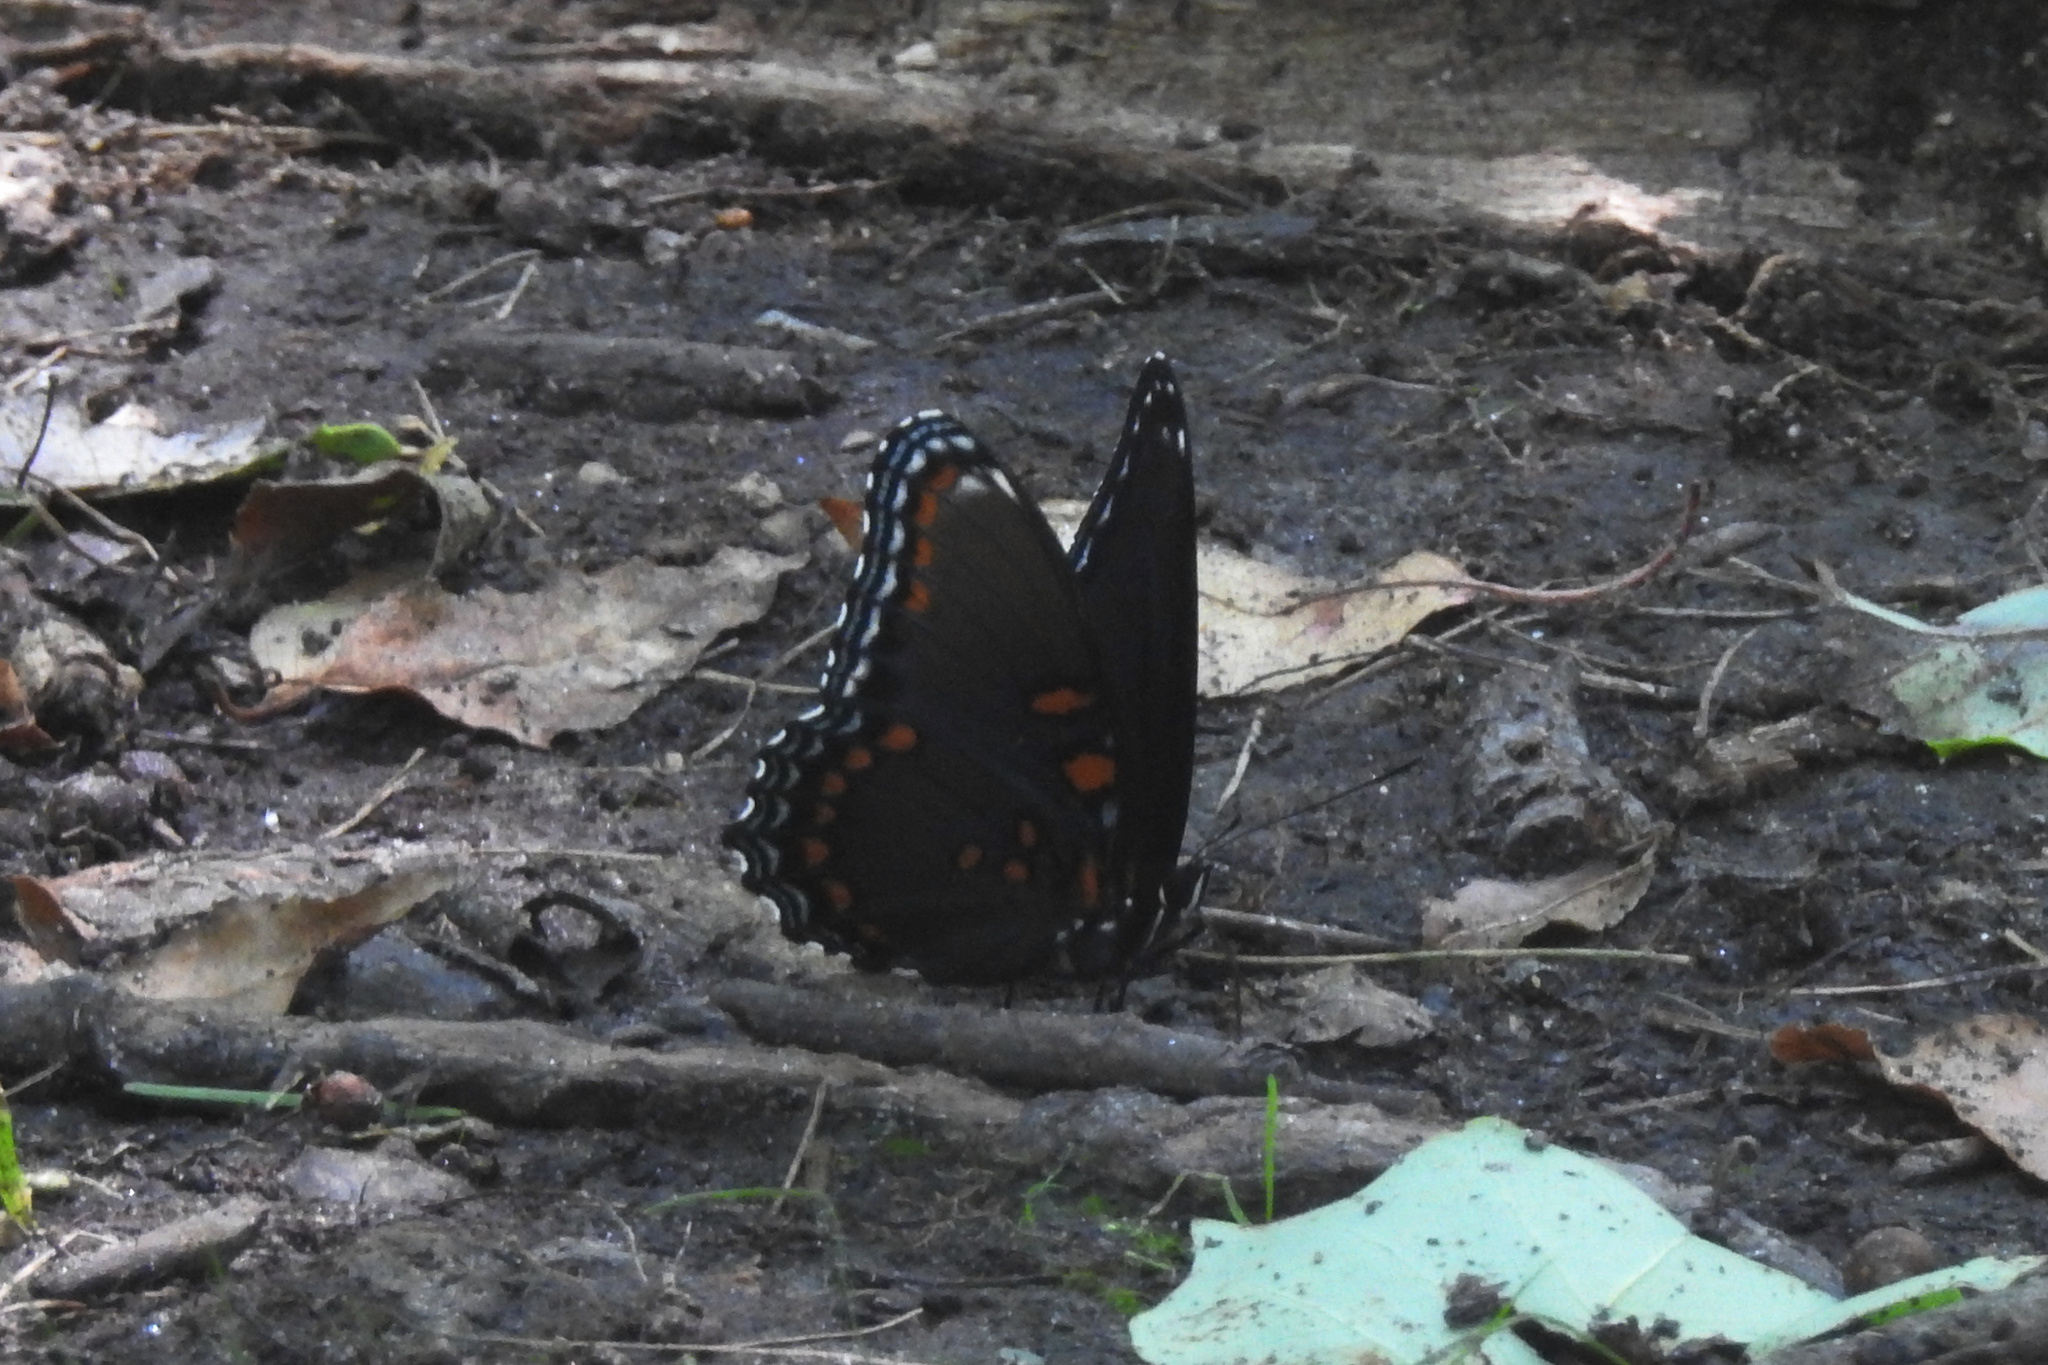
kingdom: Animalia
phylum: Arthropoda
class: Insecta
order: Lepidoptera
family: Nymphalidae
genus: Limenitis
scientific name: Limenitis astyanax
